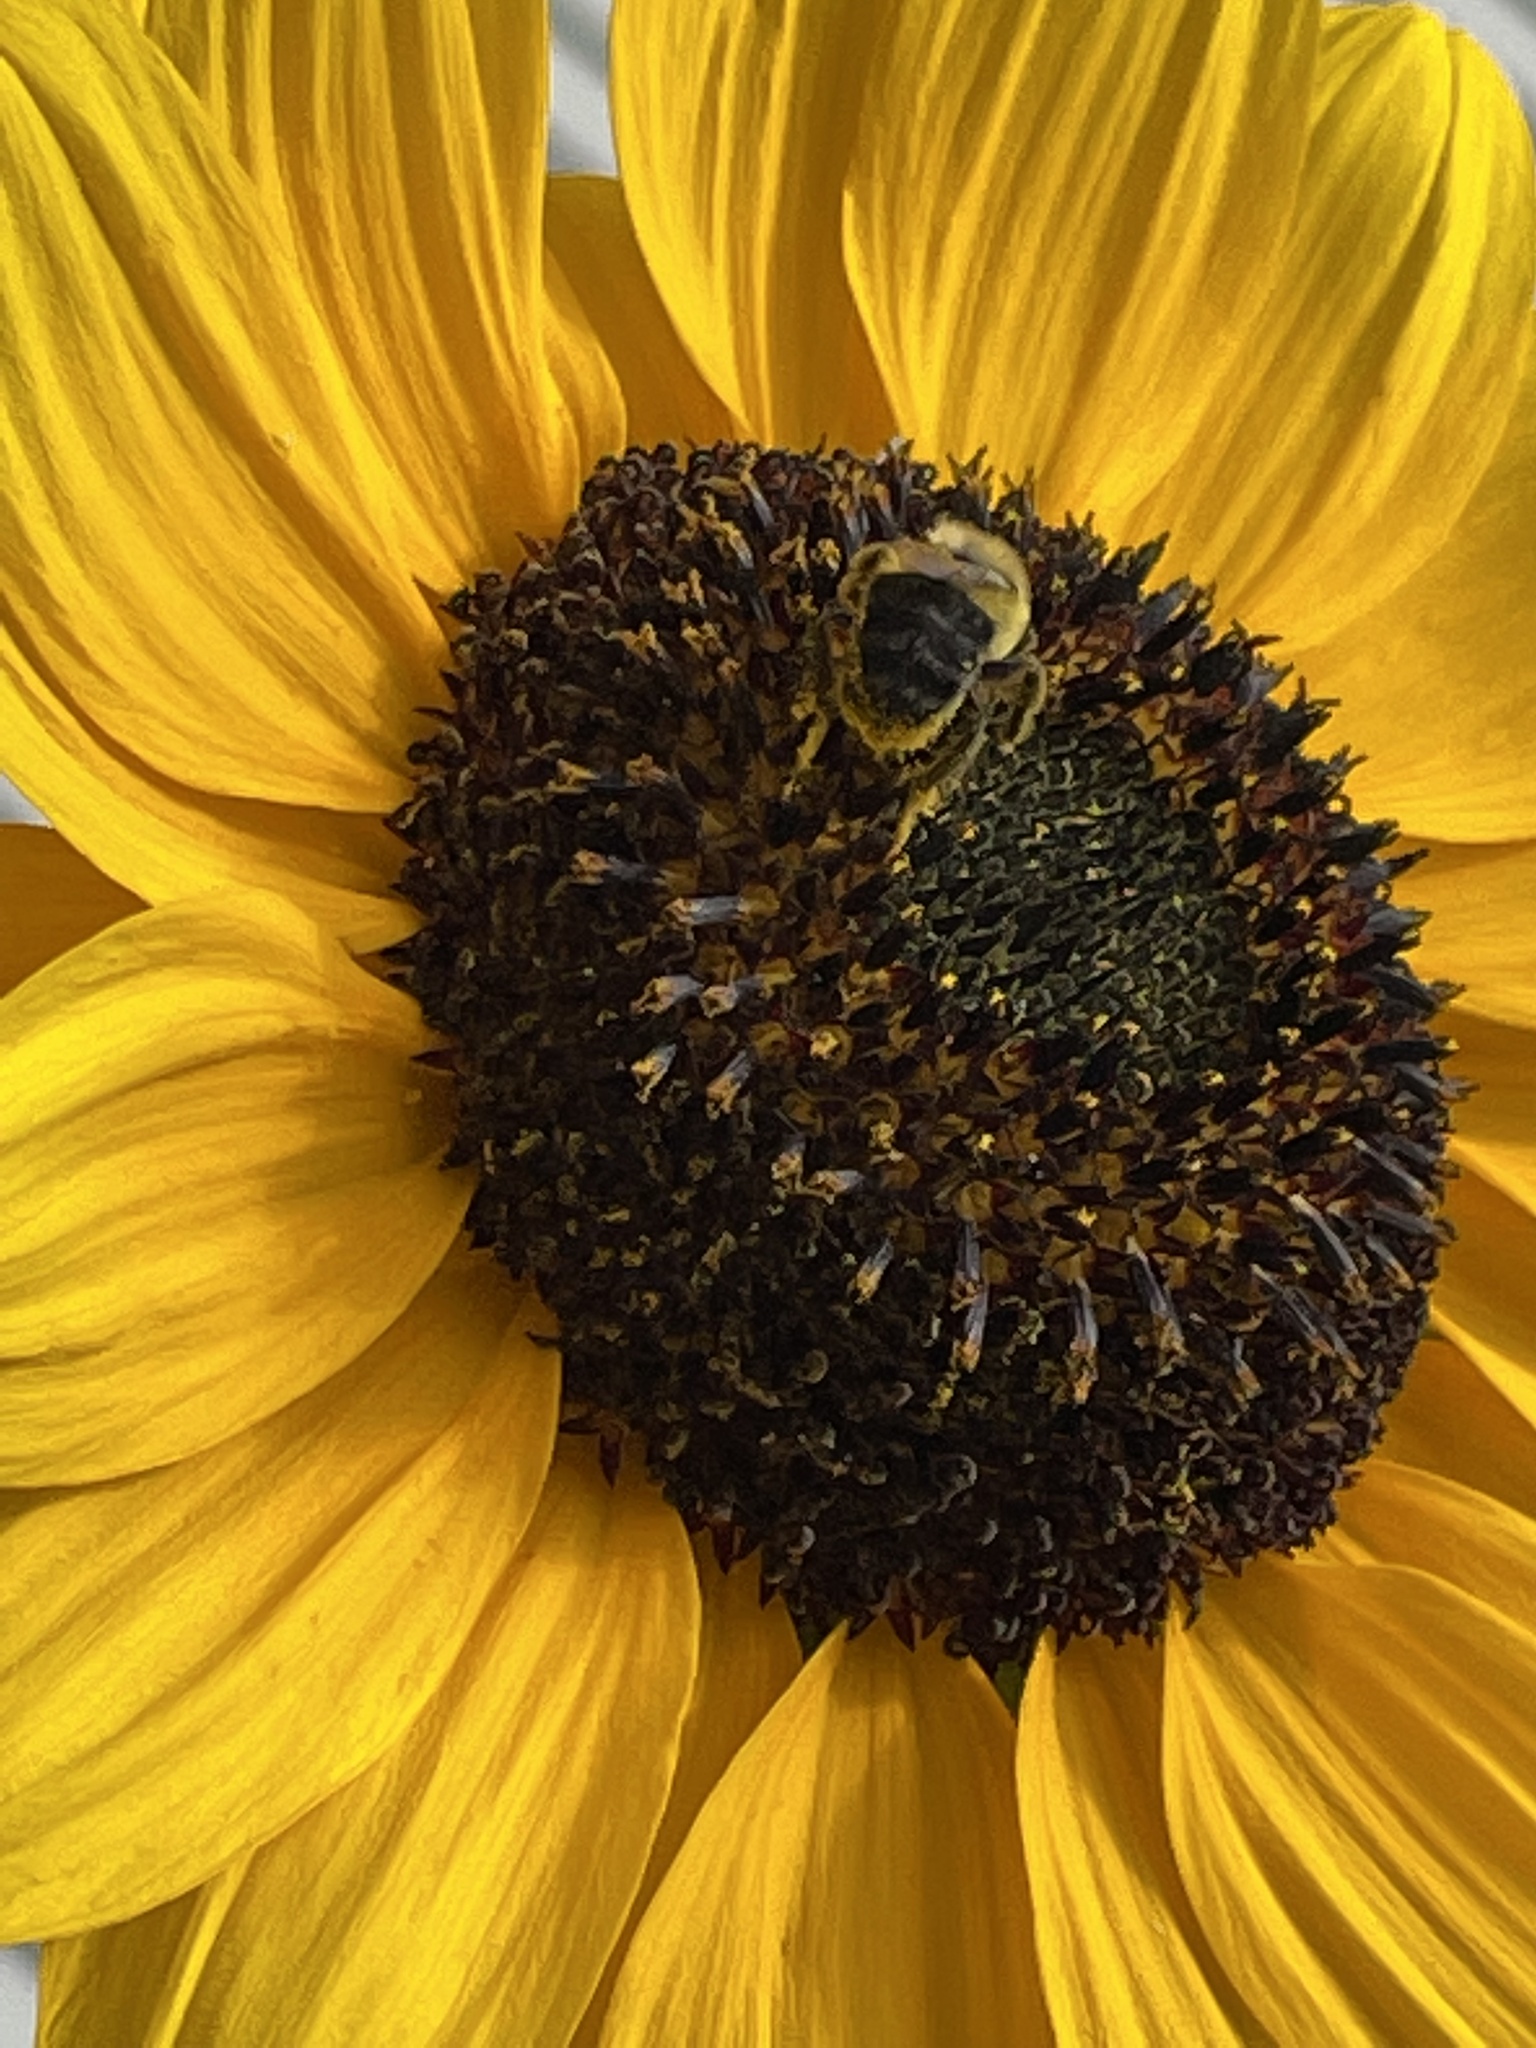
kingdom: Animalia
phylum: Arthropoda
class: Insecta
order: Hymenoptera
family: Apidae
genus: Bombus
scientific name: Bombus impatiens
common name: Common eastern bumble bee
